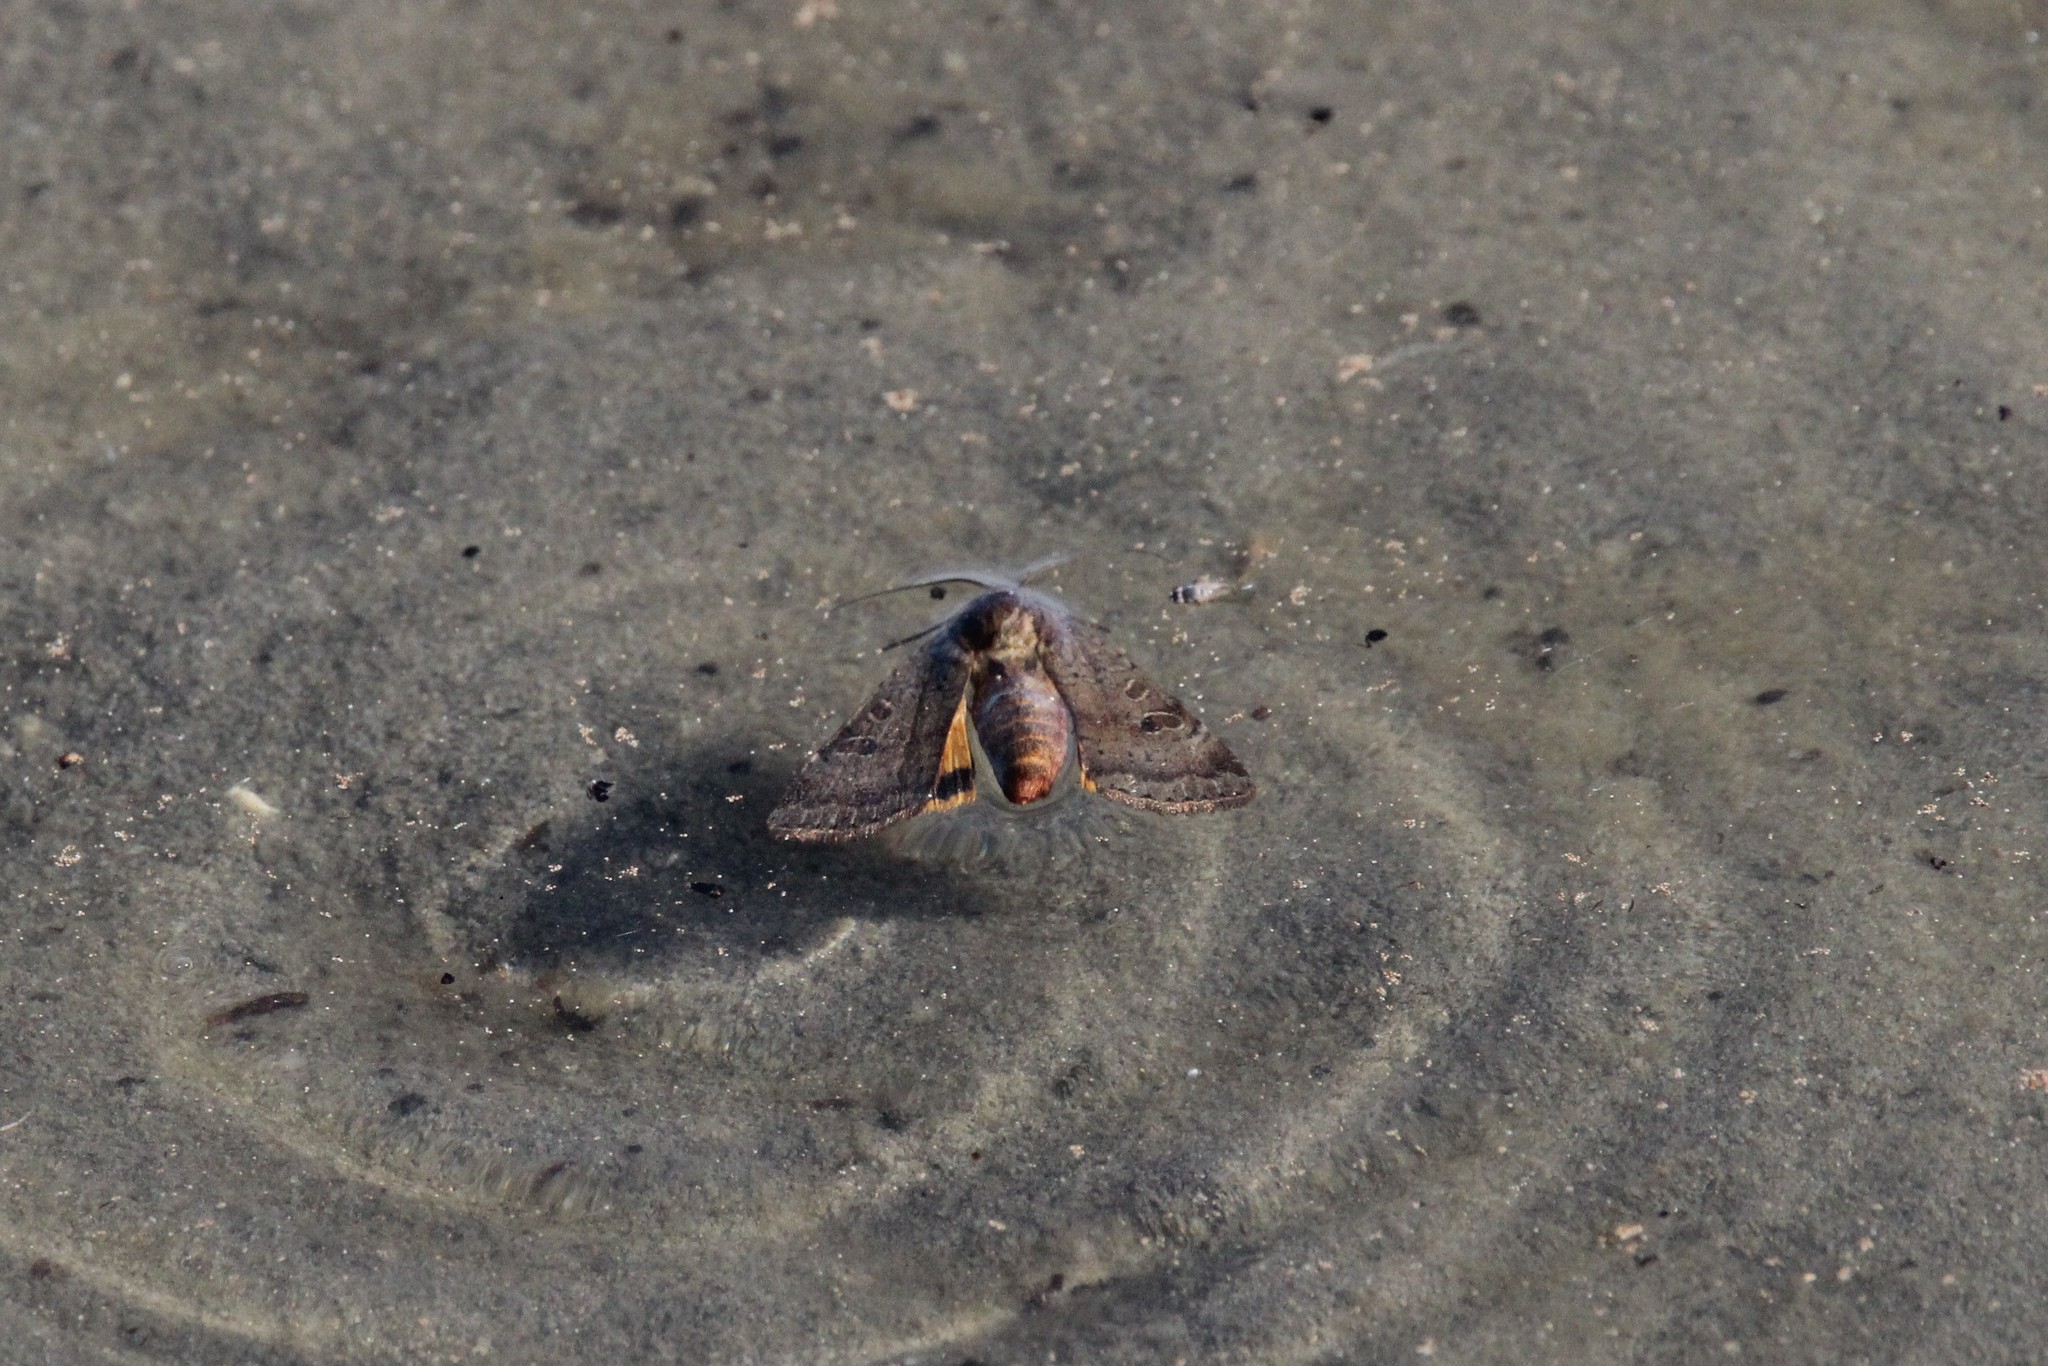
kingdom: Animalia
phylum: Arthropoda
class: Insecta
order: Lepidoptera
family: Noctuidae
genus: Noctua
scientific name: Noctua pronuba
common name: Large yellow underwing
